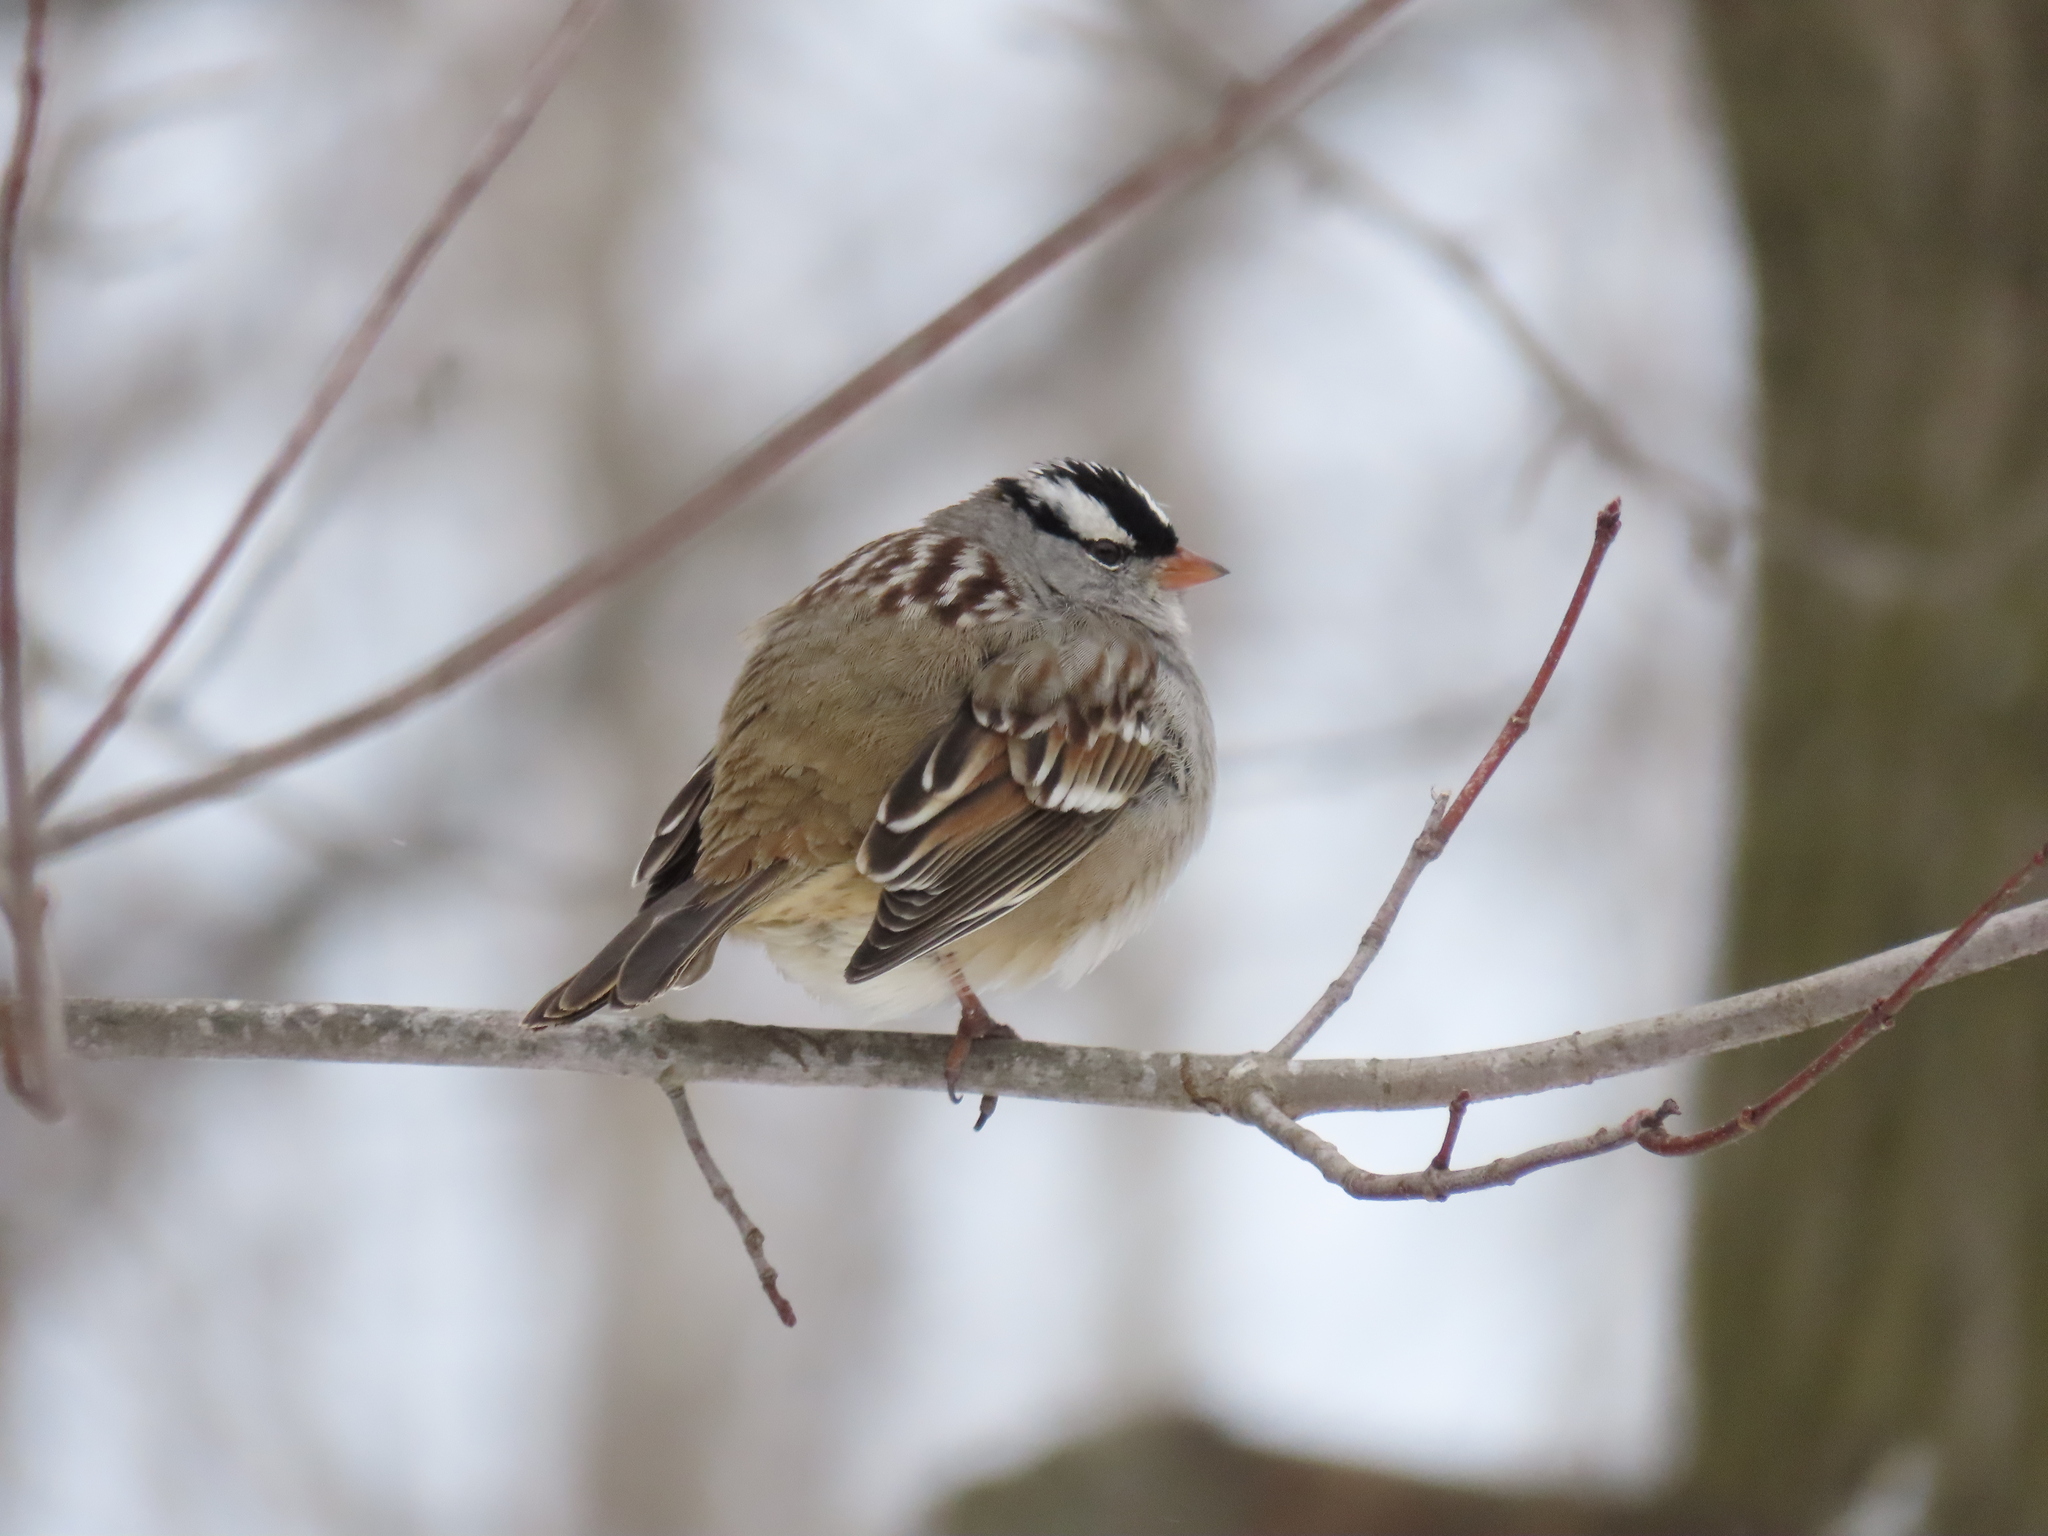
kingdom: Animalia
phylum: Chordata
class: Aves
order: Passeriformes
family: Passerellidae
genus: Zonotrichia
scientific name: Zonotrichia leucophrys
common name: White-crowned sparrow
